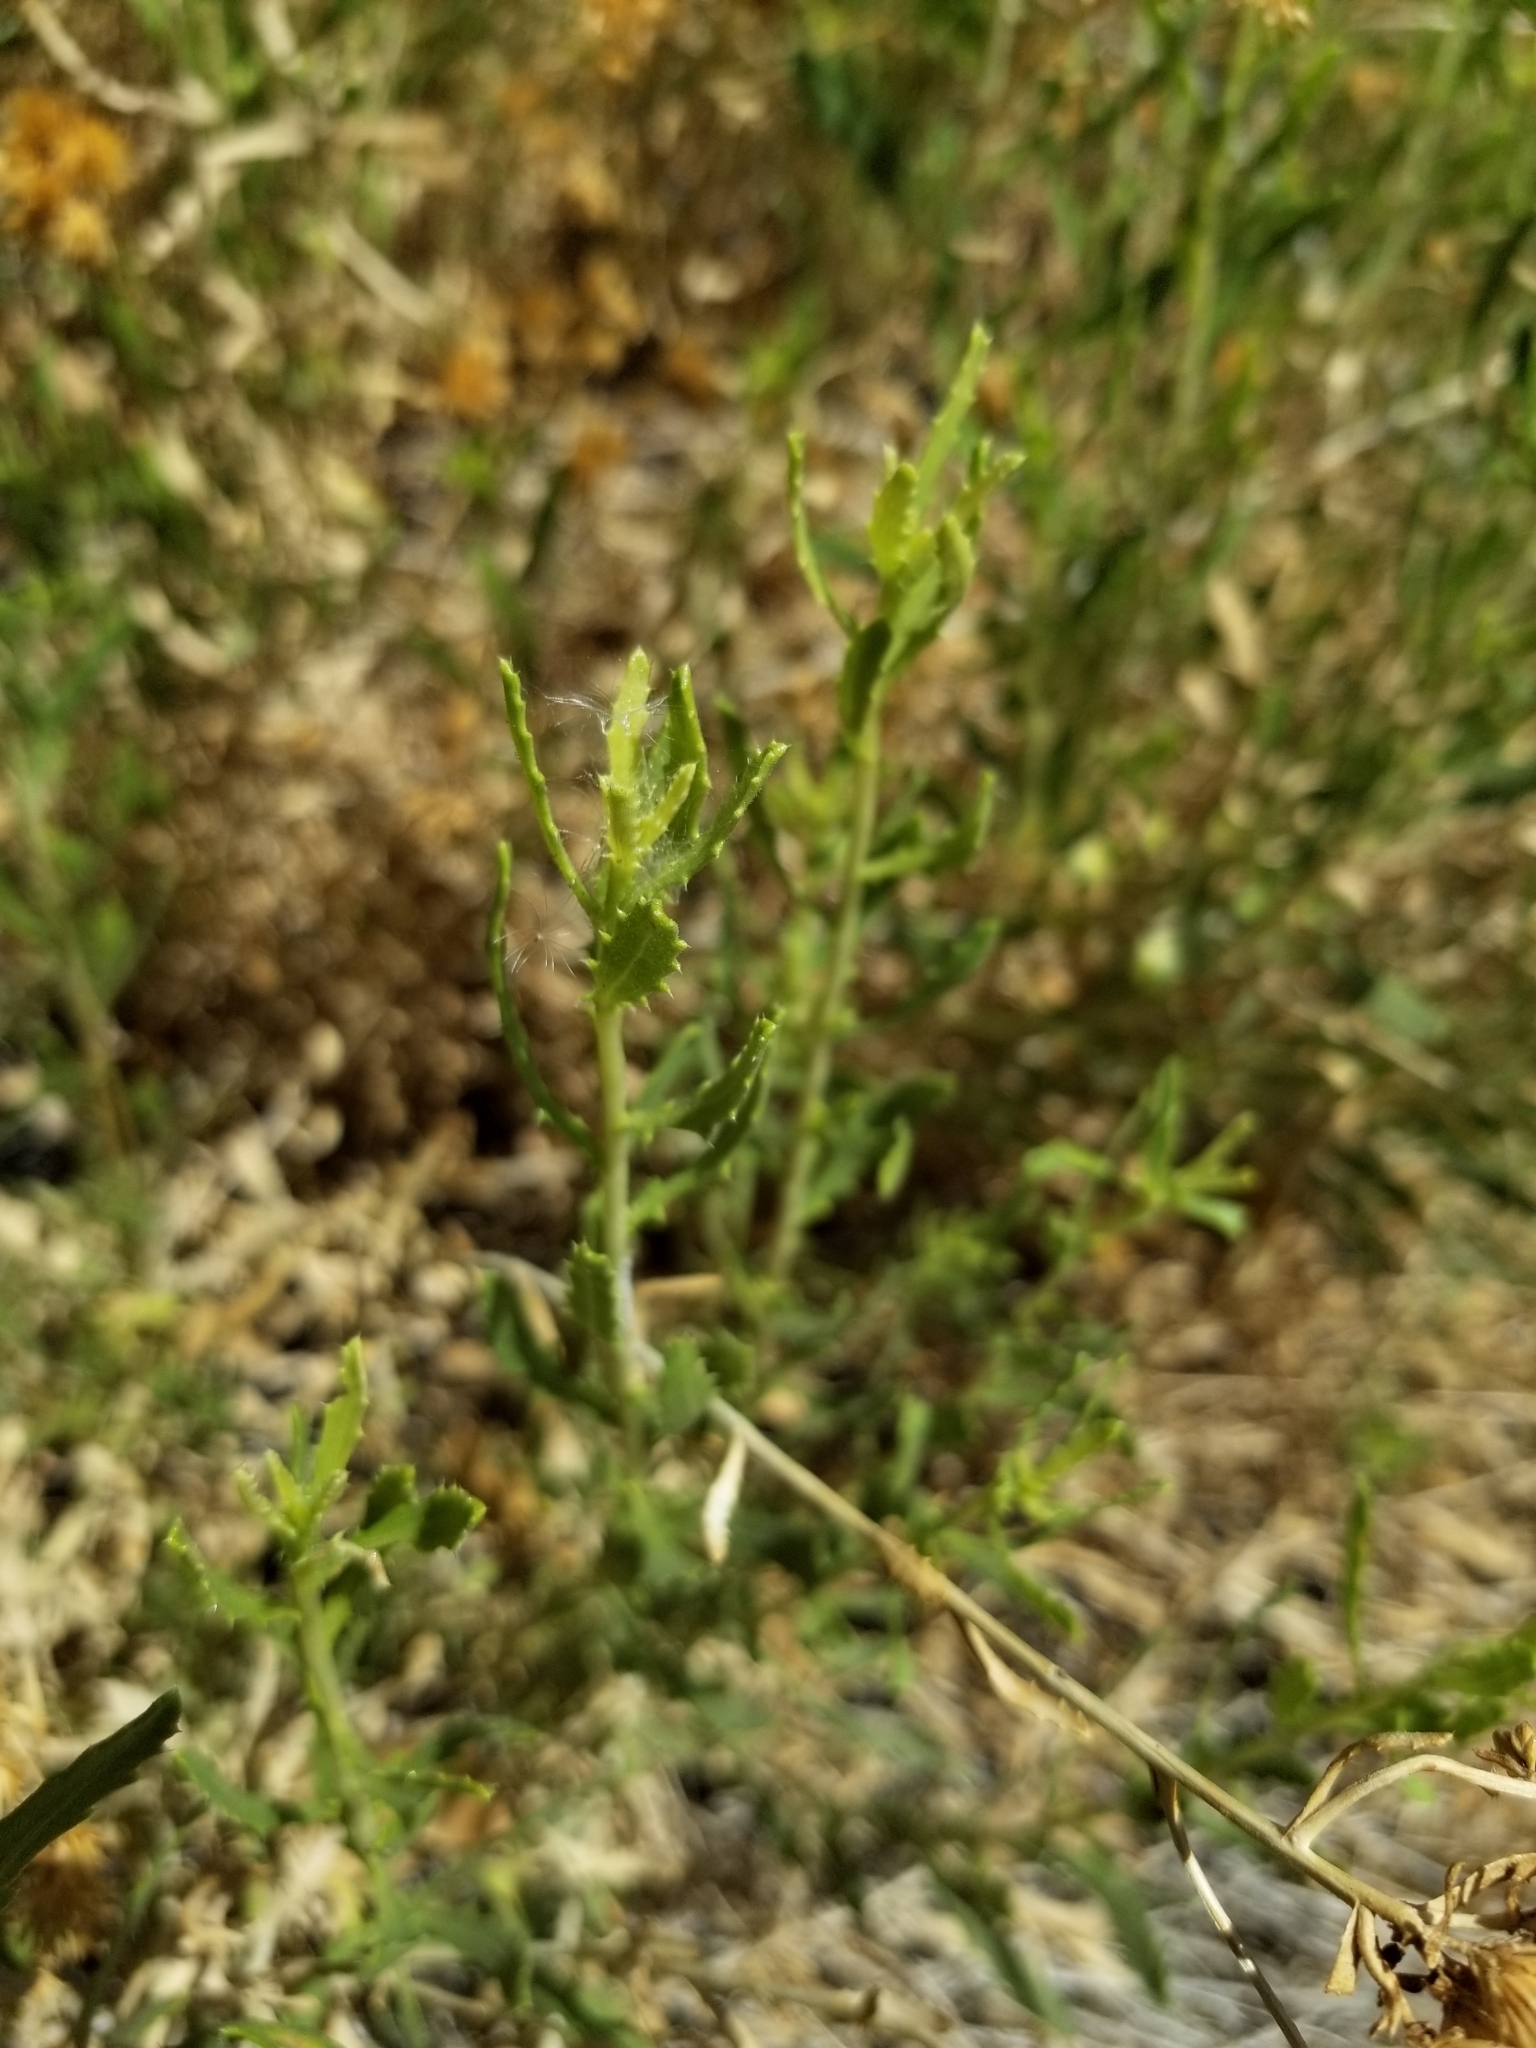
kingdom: Plantae
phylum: Tracheophyta
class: Magnoliopsida
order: Asterales
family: Asteraceae
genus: Isocoma
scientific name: Isocoma acradenia
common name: Alkali jimmyweed
